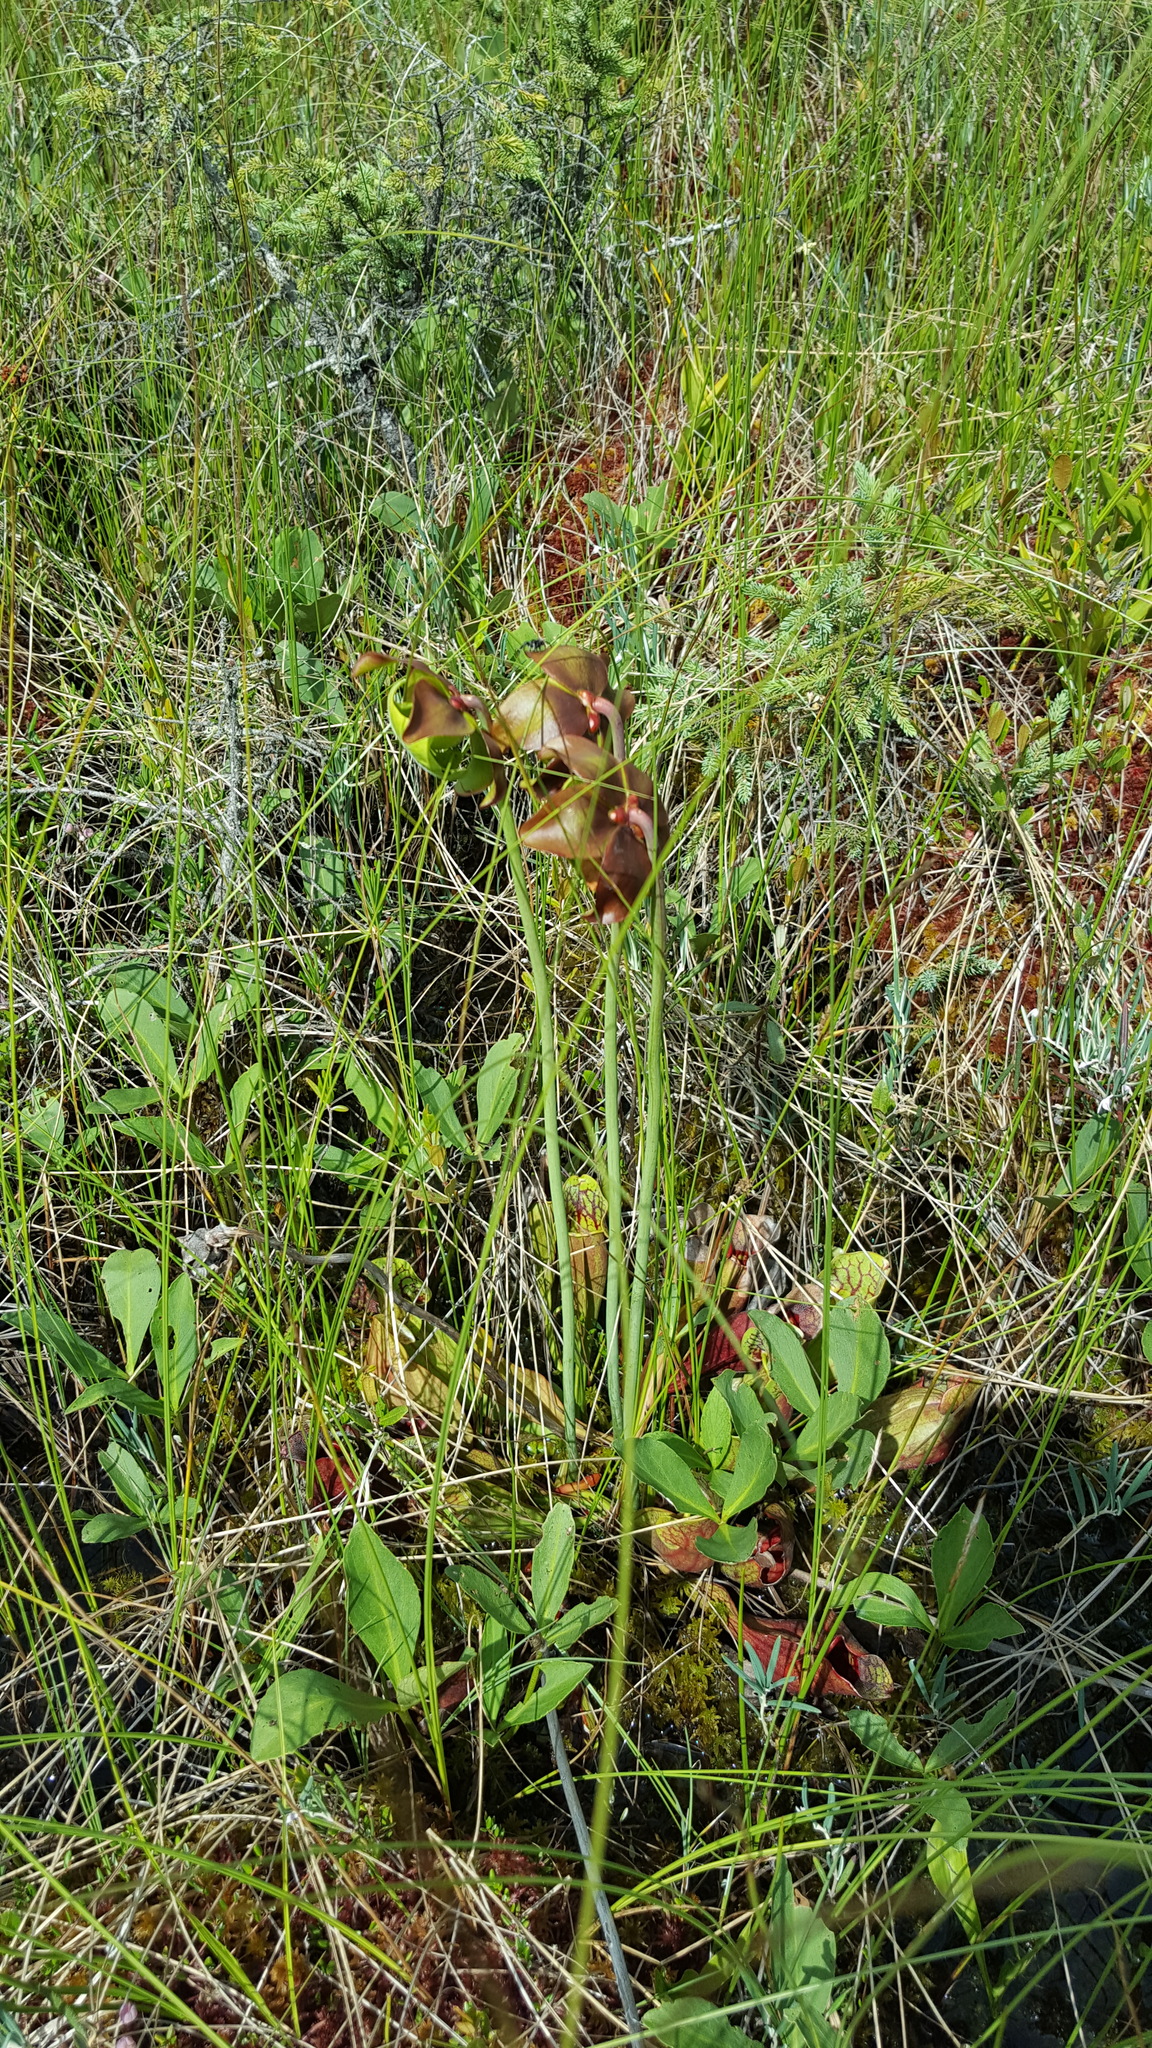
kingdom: Plantae
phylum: Tracheophyta
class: Magnoliopsida
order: Ericales
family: Sarraceniaceae
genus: Sarracenia
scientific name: Sarracenia purpurea
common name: Pitcherplant
